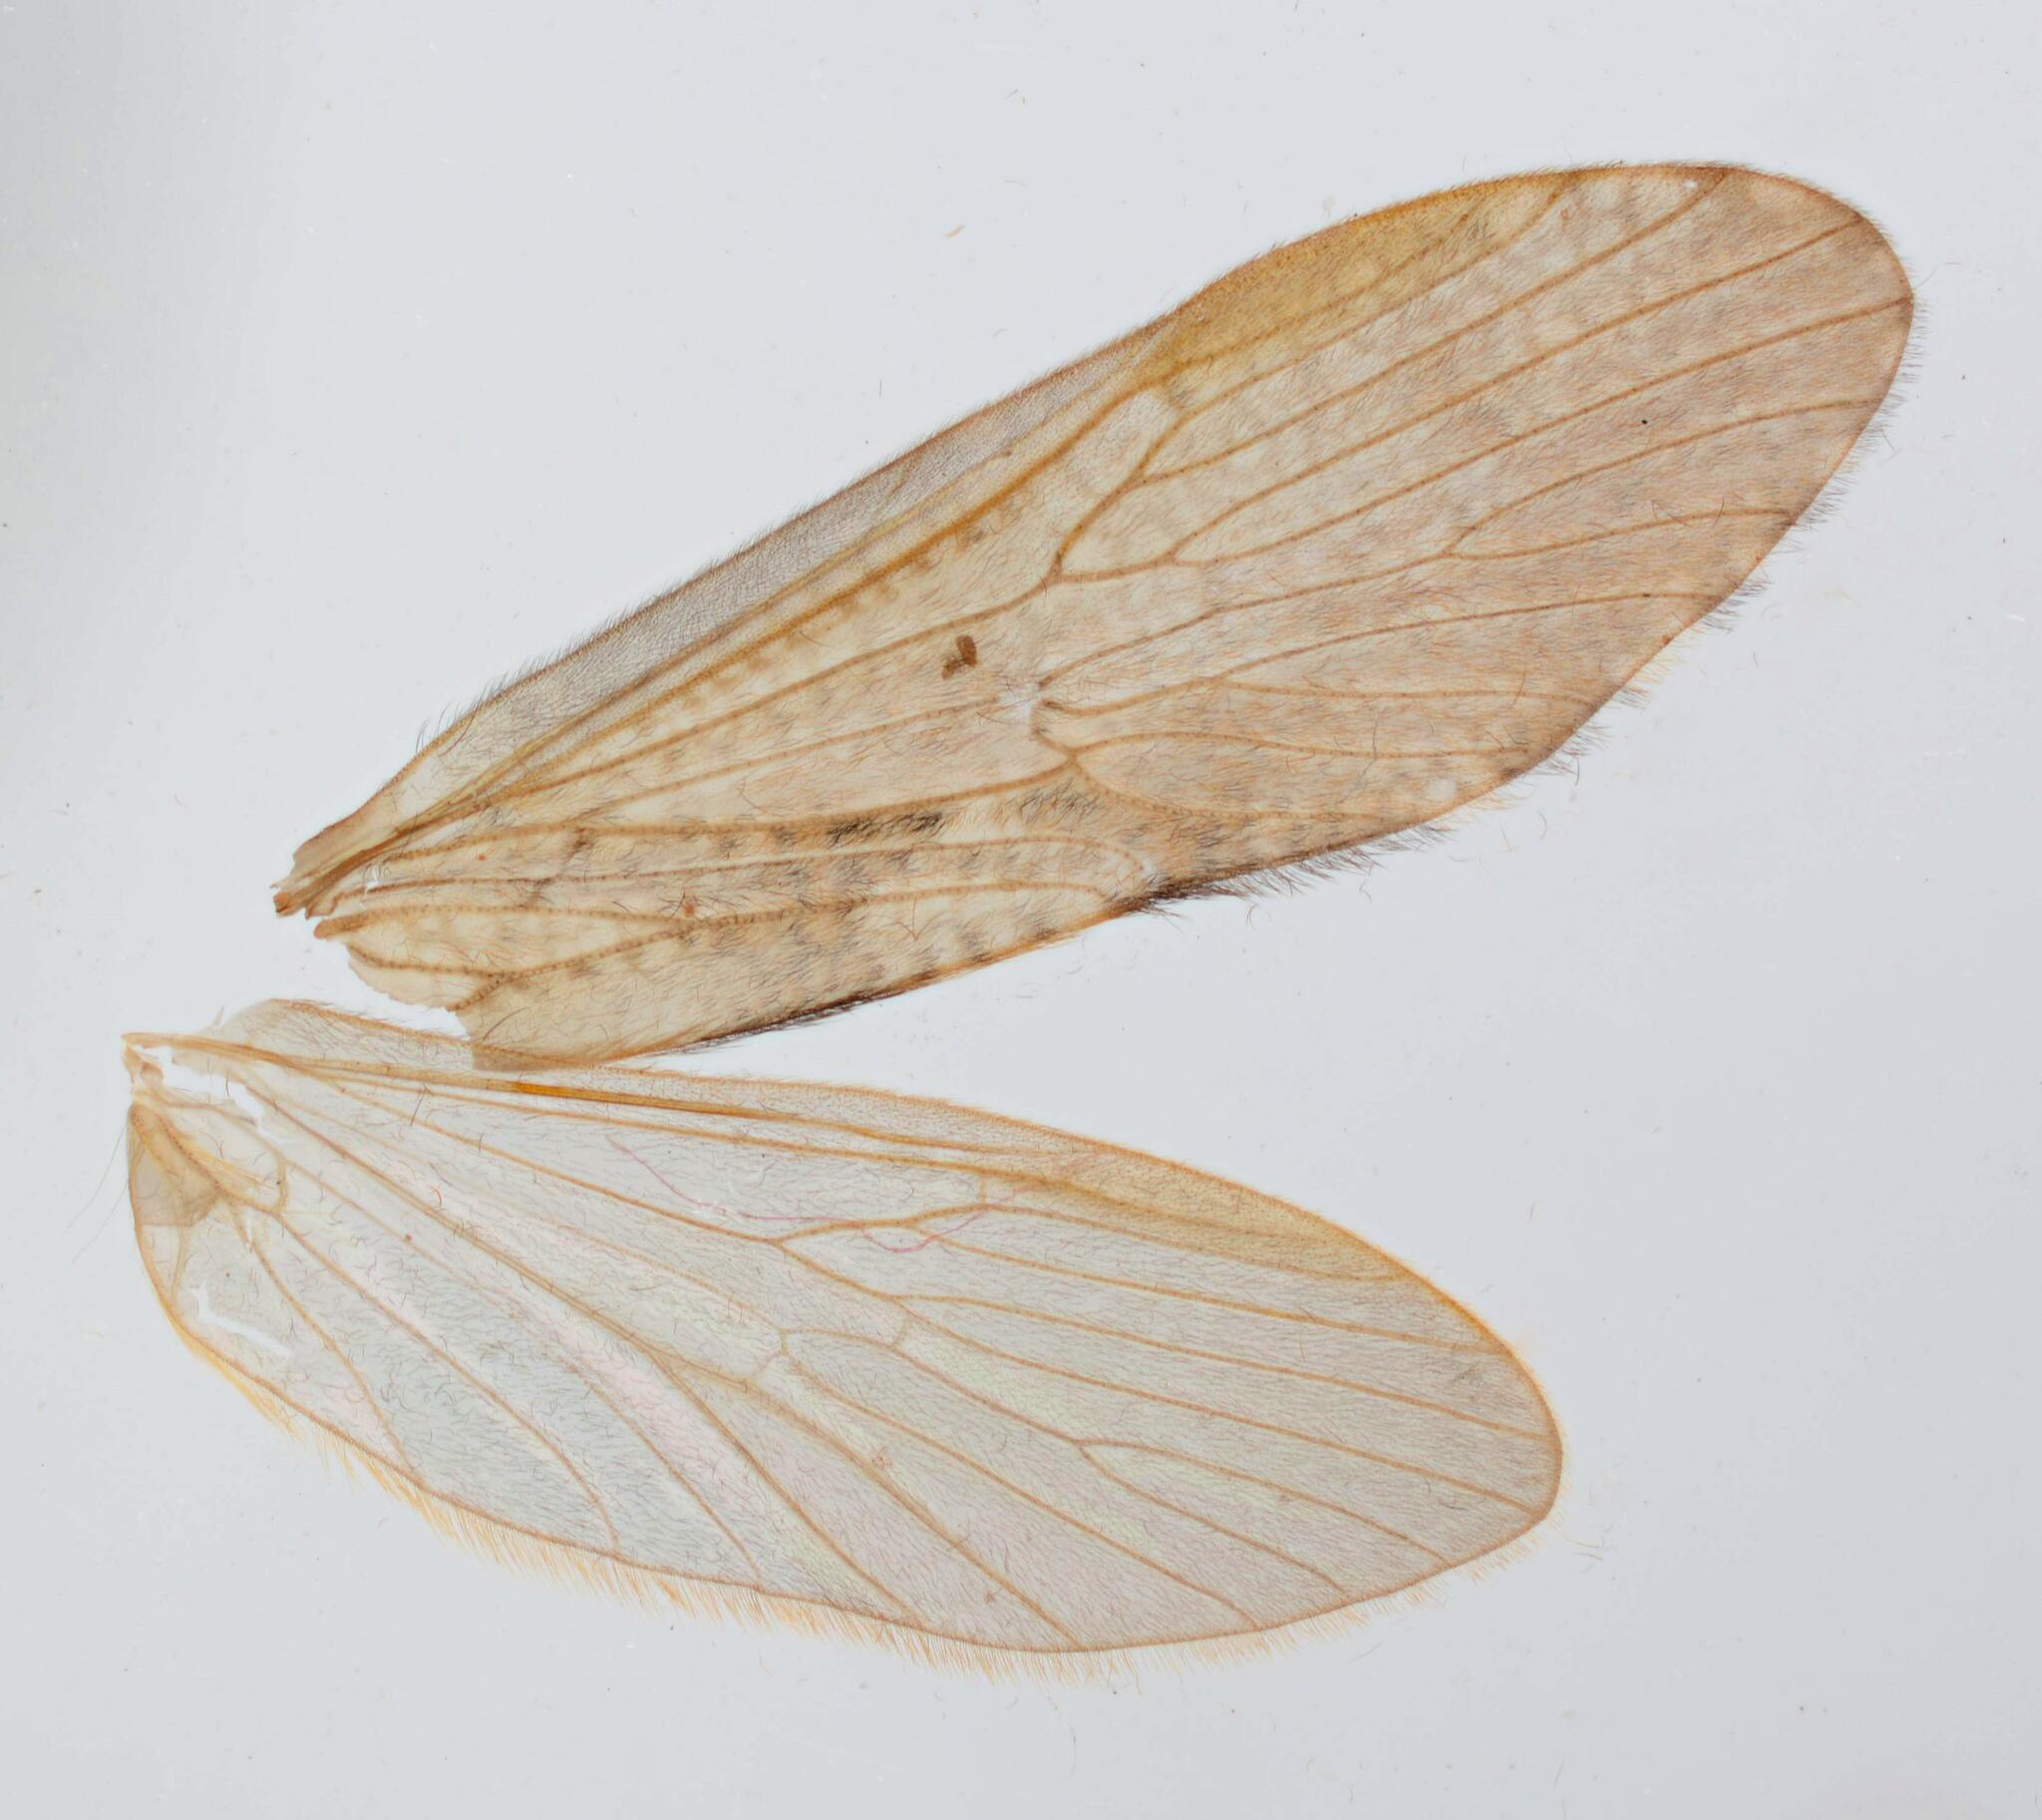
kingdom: Animalia
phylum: Arthropoda
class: Insecta
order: Trichoptera
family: Rhyacophilidae
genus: Rhyacophila
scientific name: Rhyacophila dorsalis
